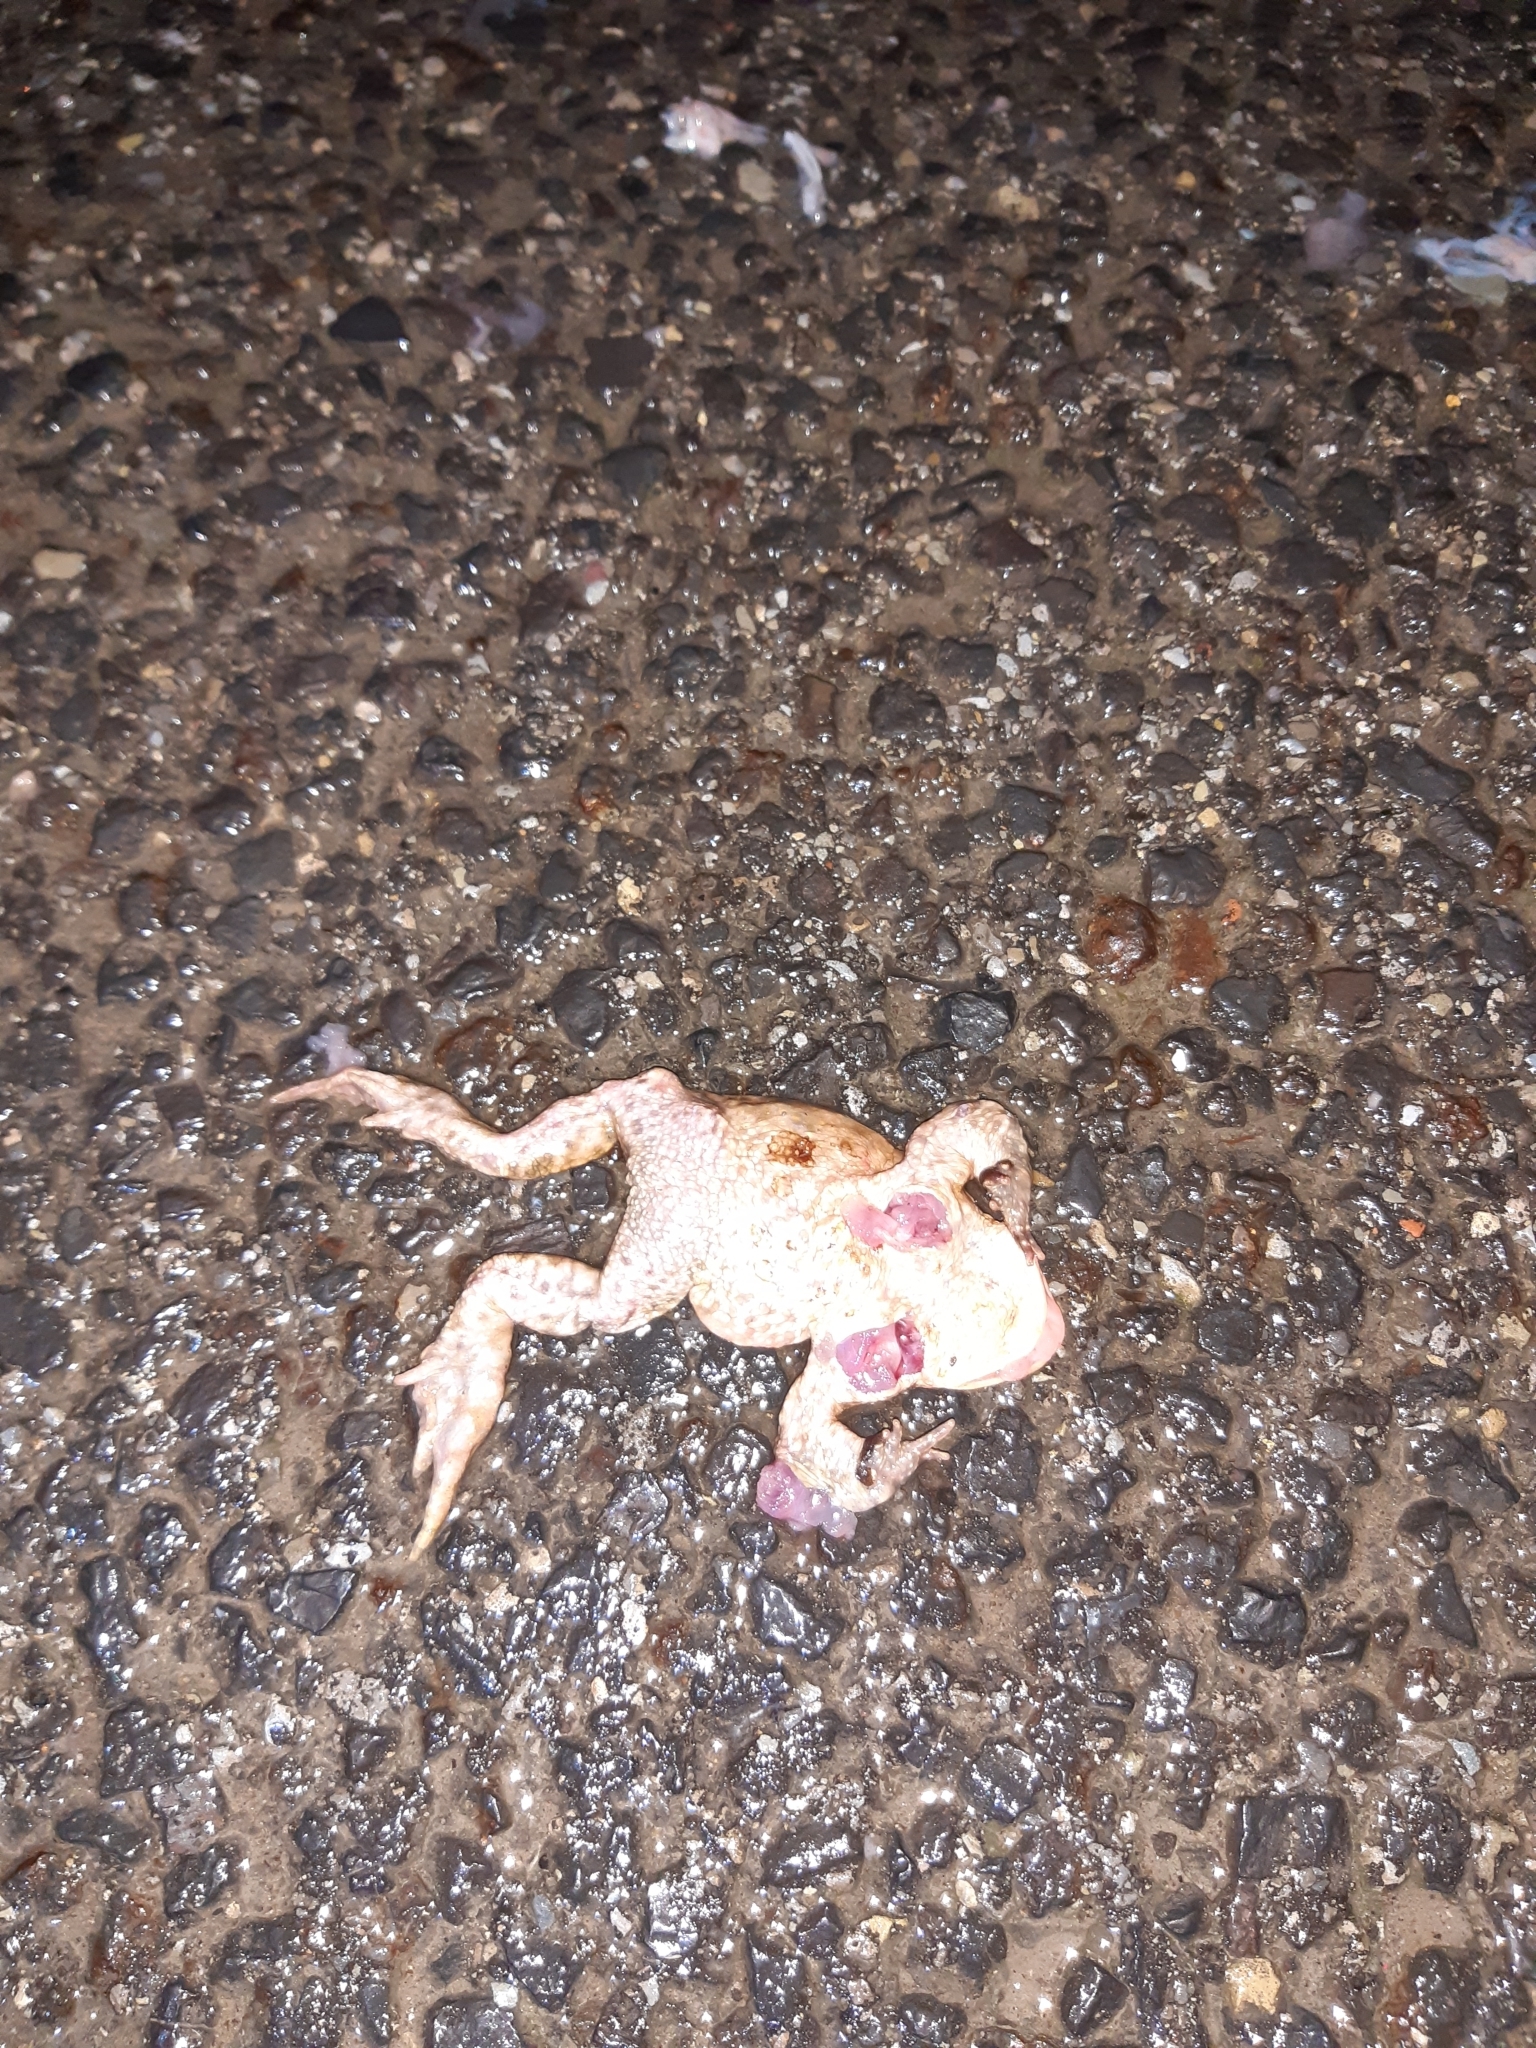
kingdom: Animalia
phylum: Chordata
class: Amphibia
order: Anura
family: Bufonidae
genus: Bufo
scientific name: Bufo bufo
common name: Common toad
